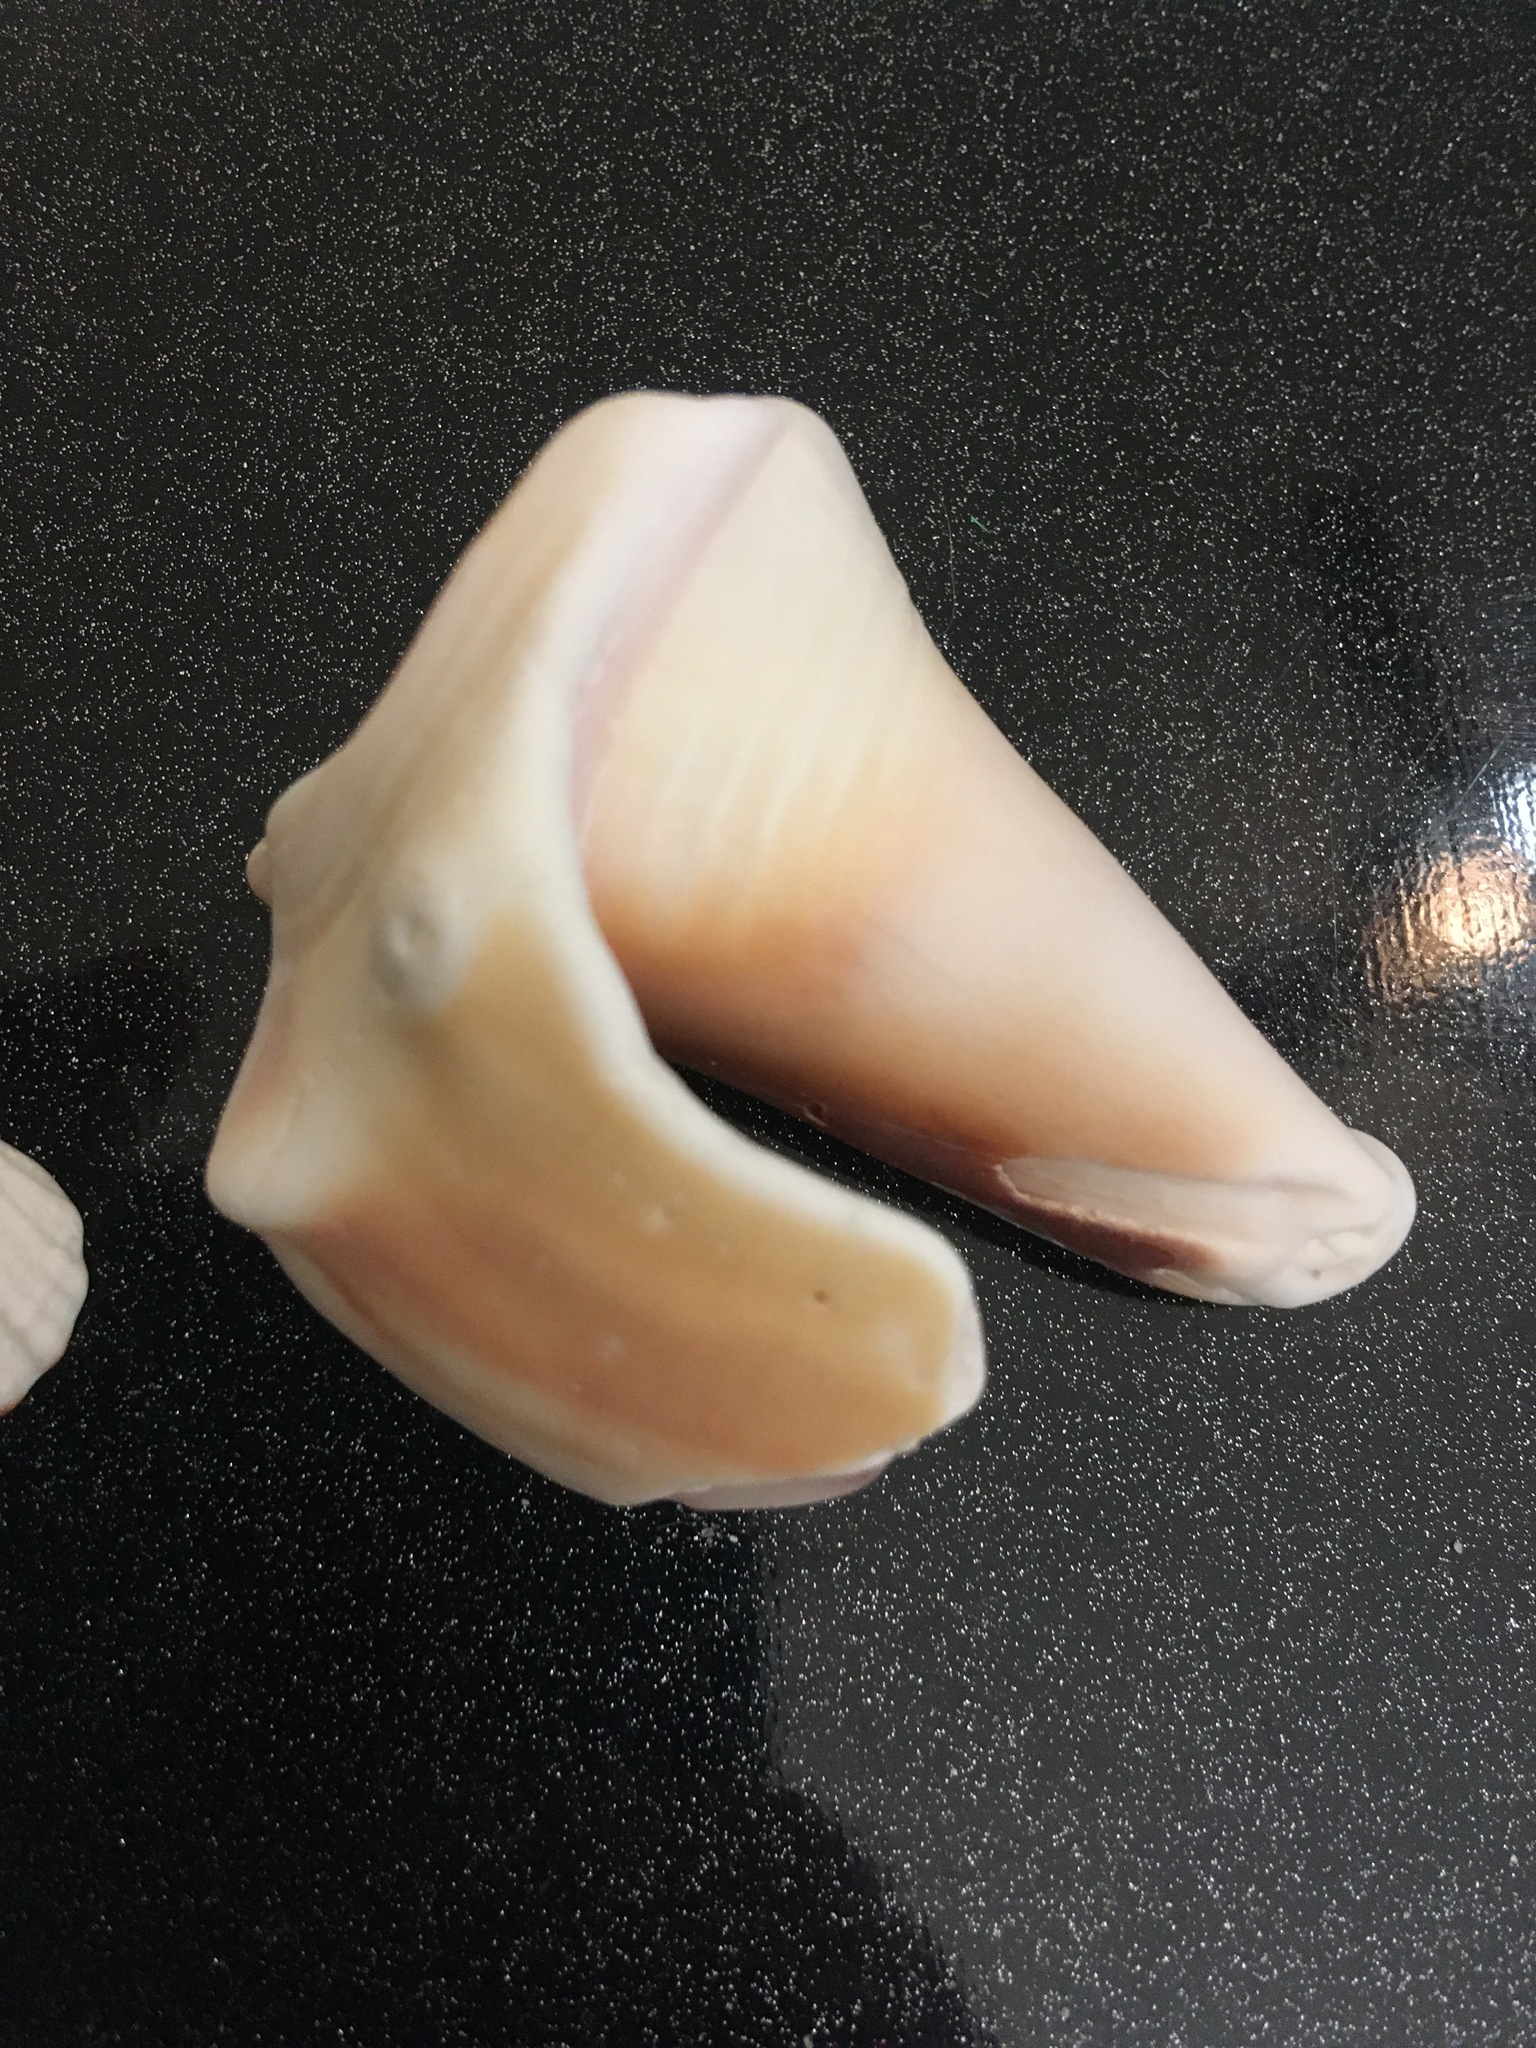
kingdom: Animalia
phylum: Mollusca
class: Gastropoda
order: Littorinimorpha
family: Strombidae
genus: Strombus
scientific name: Strombus alatus
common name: Florida fighting conch
